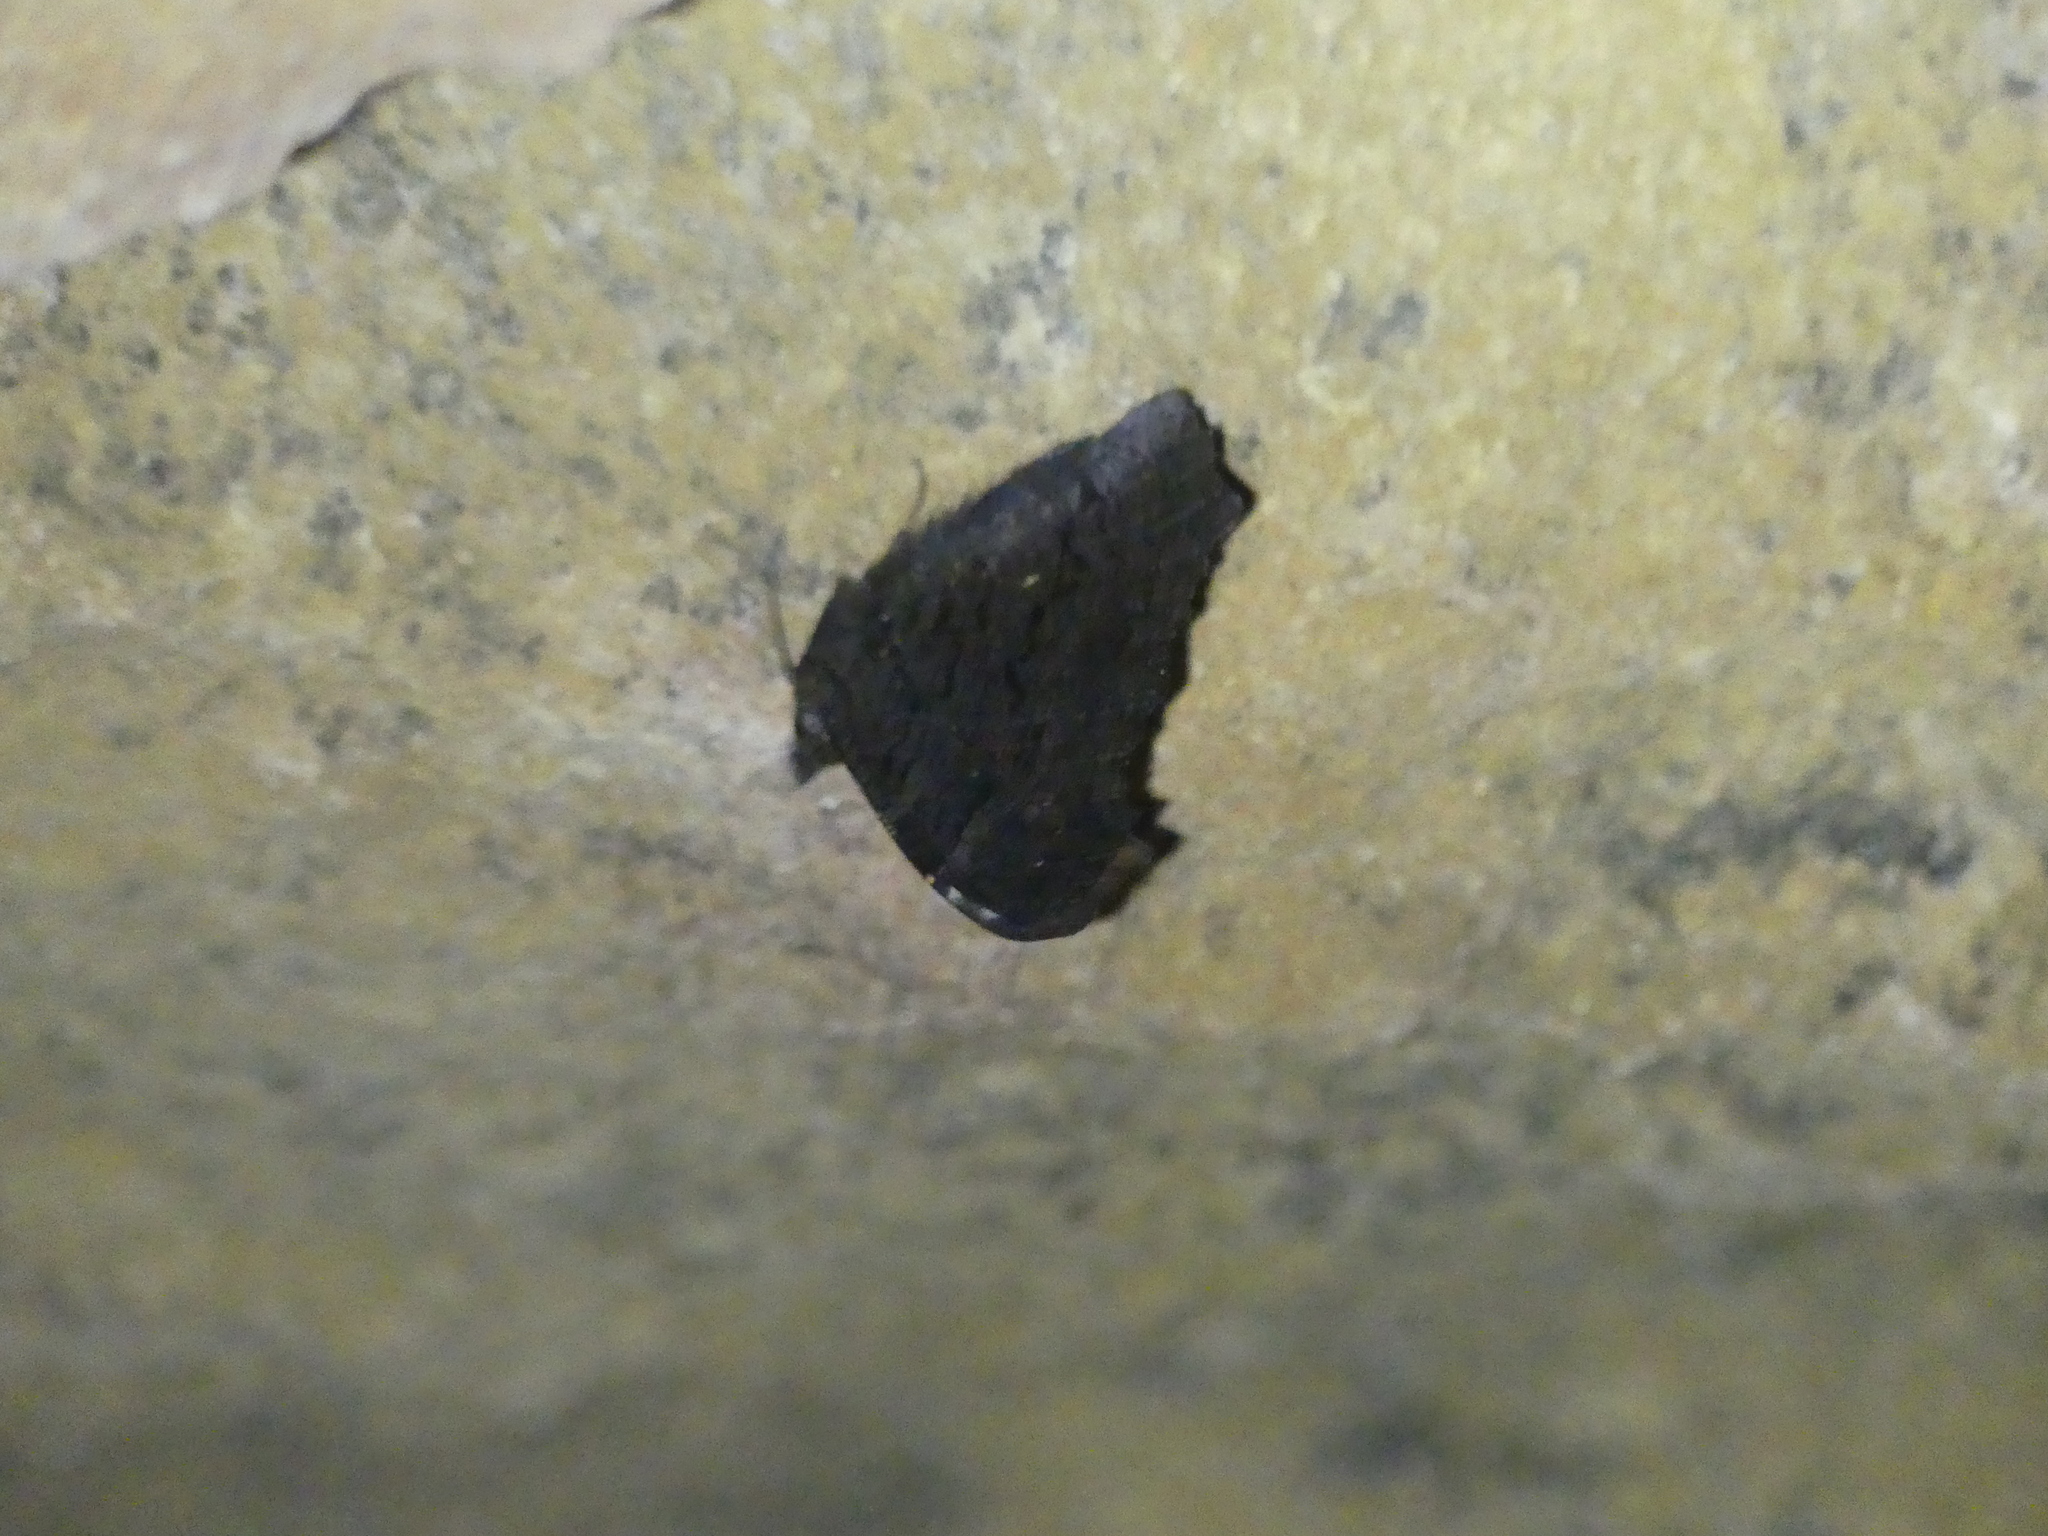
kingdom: Animalia
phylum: Arthropoda
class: Insecta
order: Lepidoptera
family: Nymphalidae
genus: Aglais
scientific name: Aglais io
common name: Peacock
